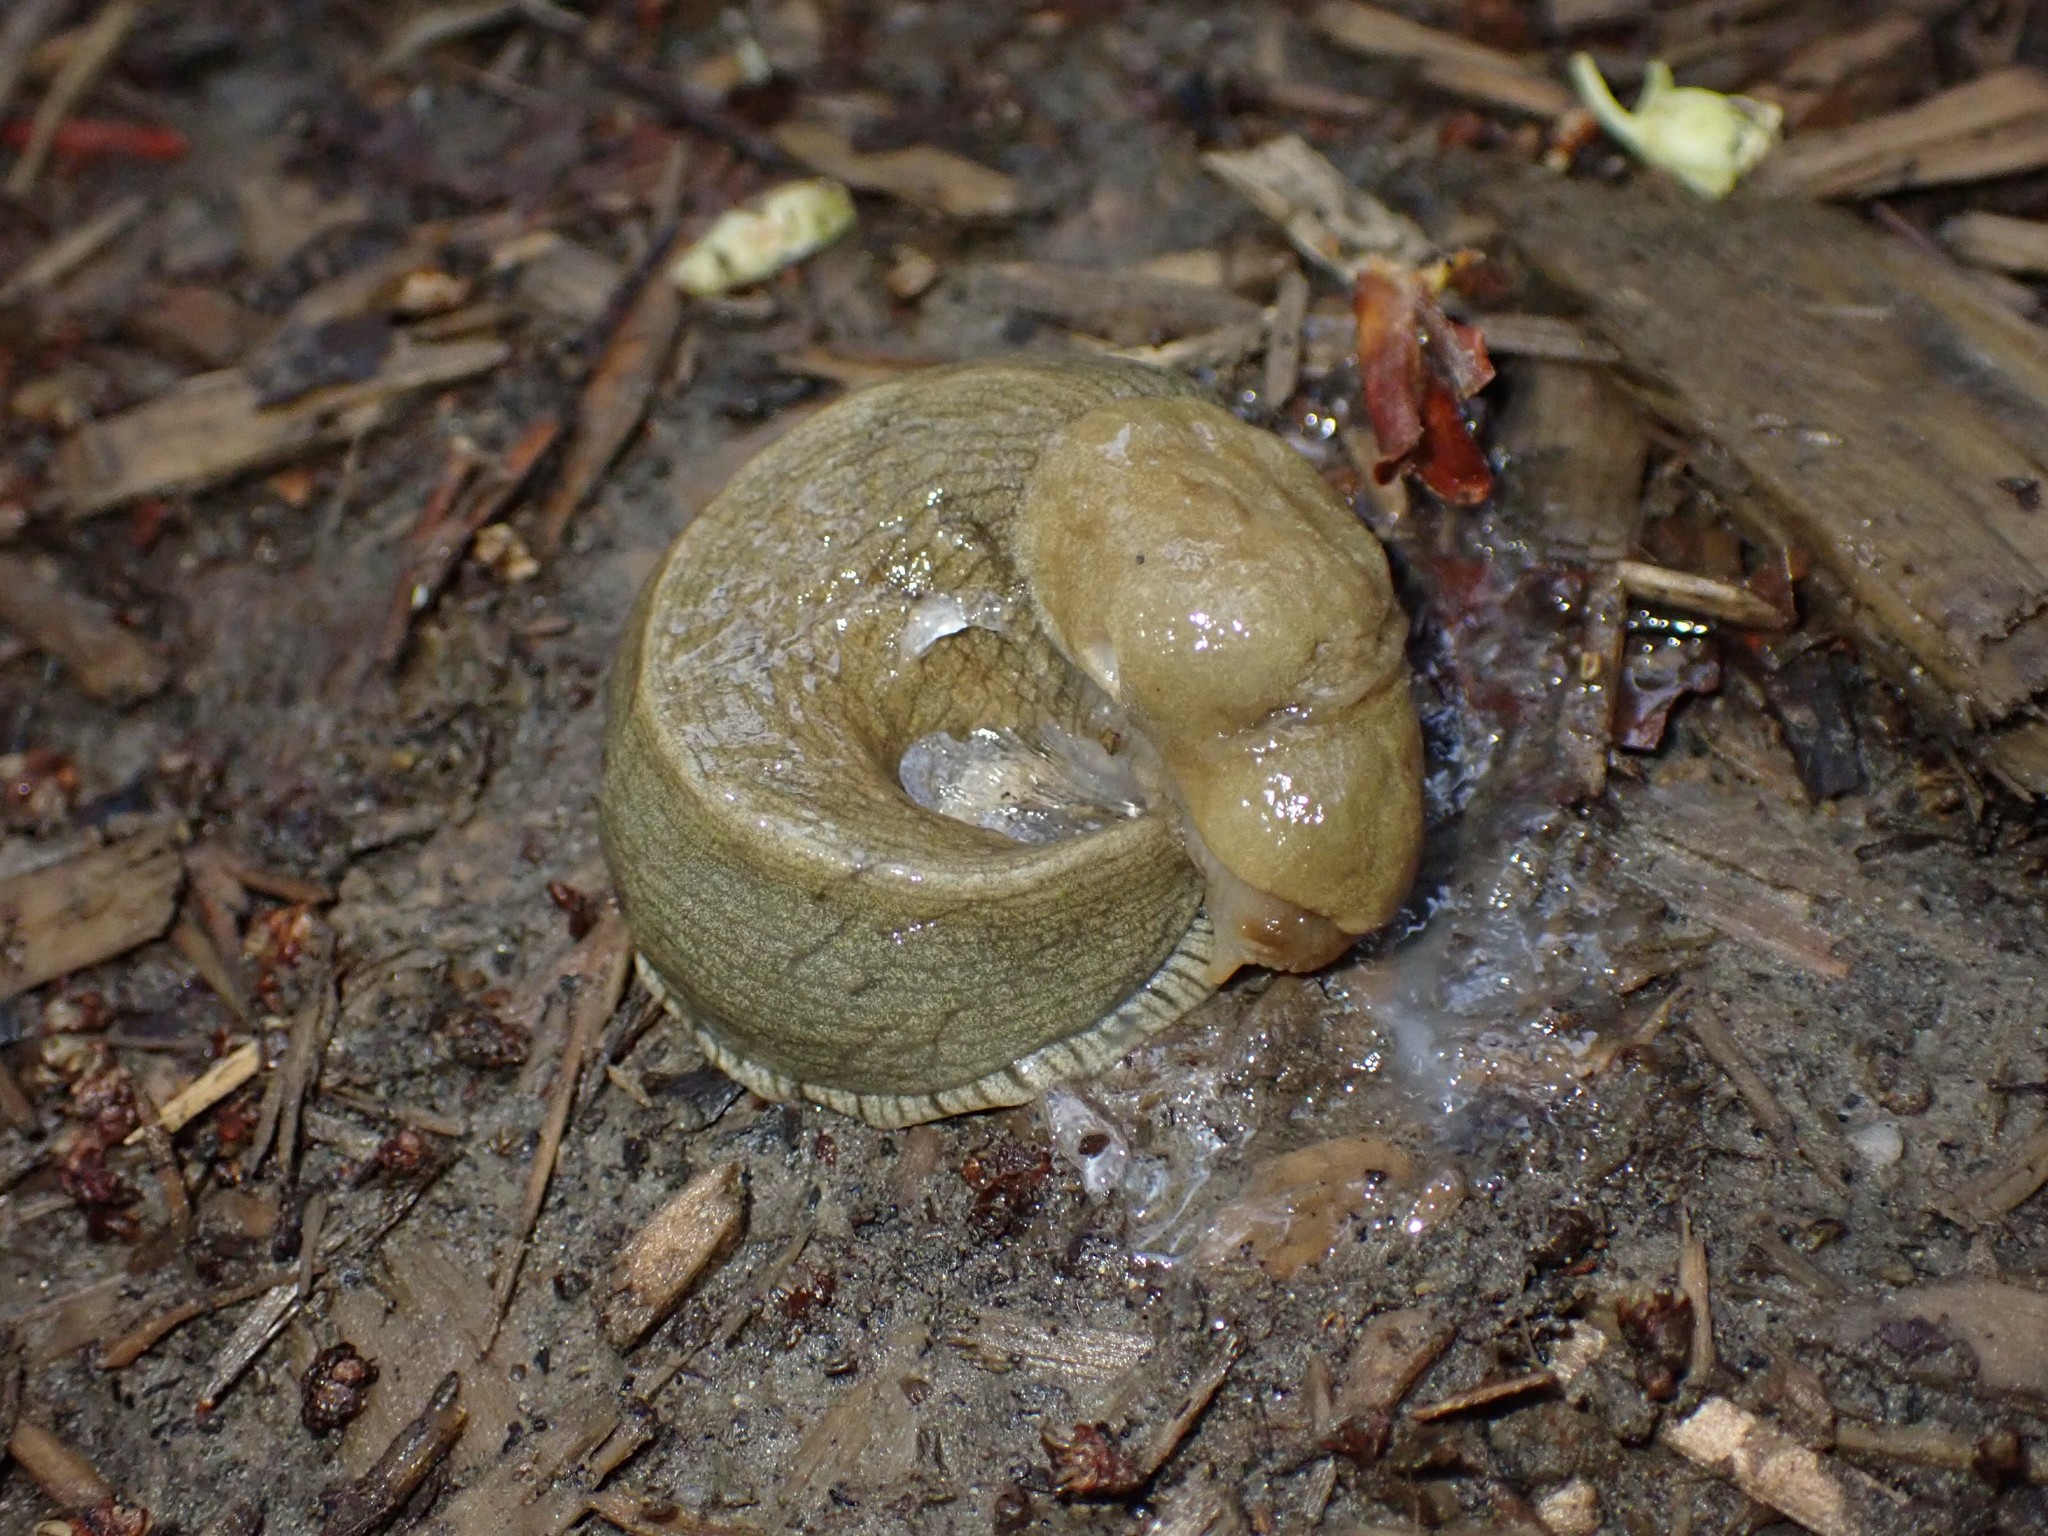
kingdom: Animalia
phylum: Mollusca
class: Gastropoda
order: Stylommatophora
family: Ariolimacidae
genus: Ariolimax
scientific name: Ariolimax columbianus
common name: Pacific banana slug
